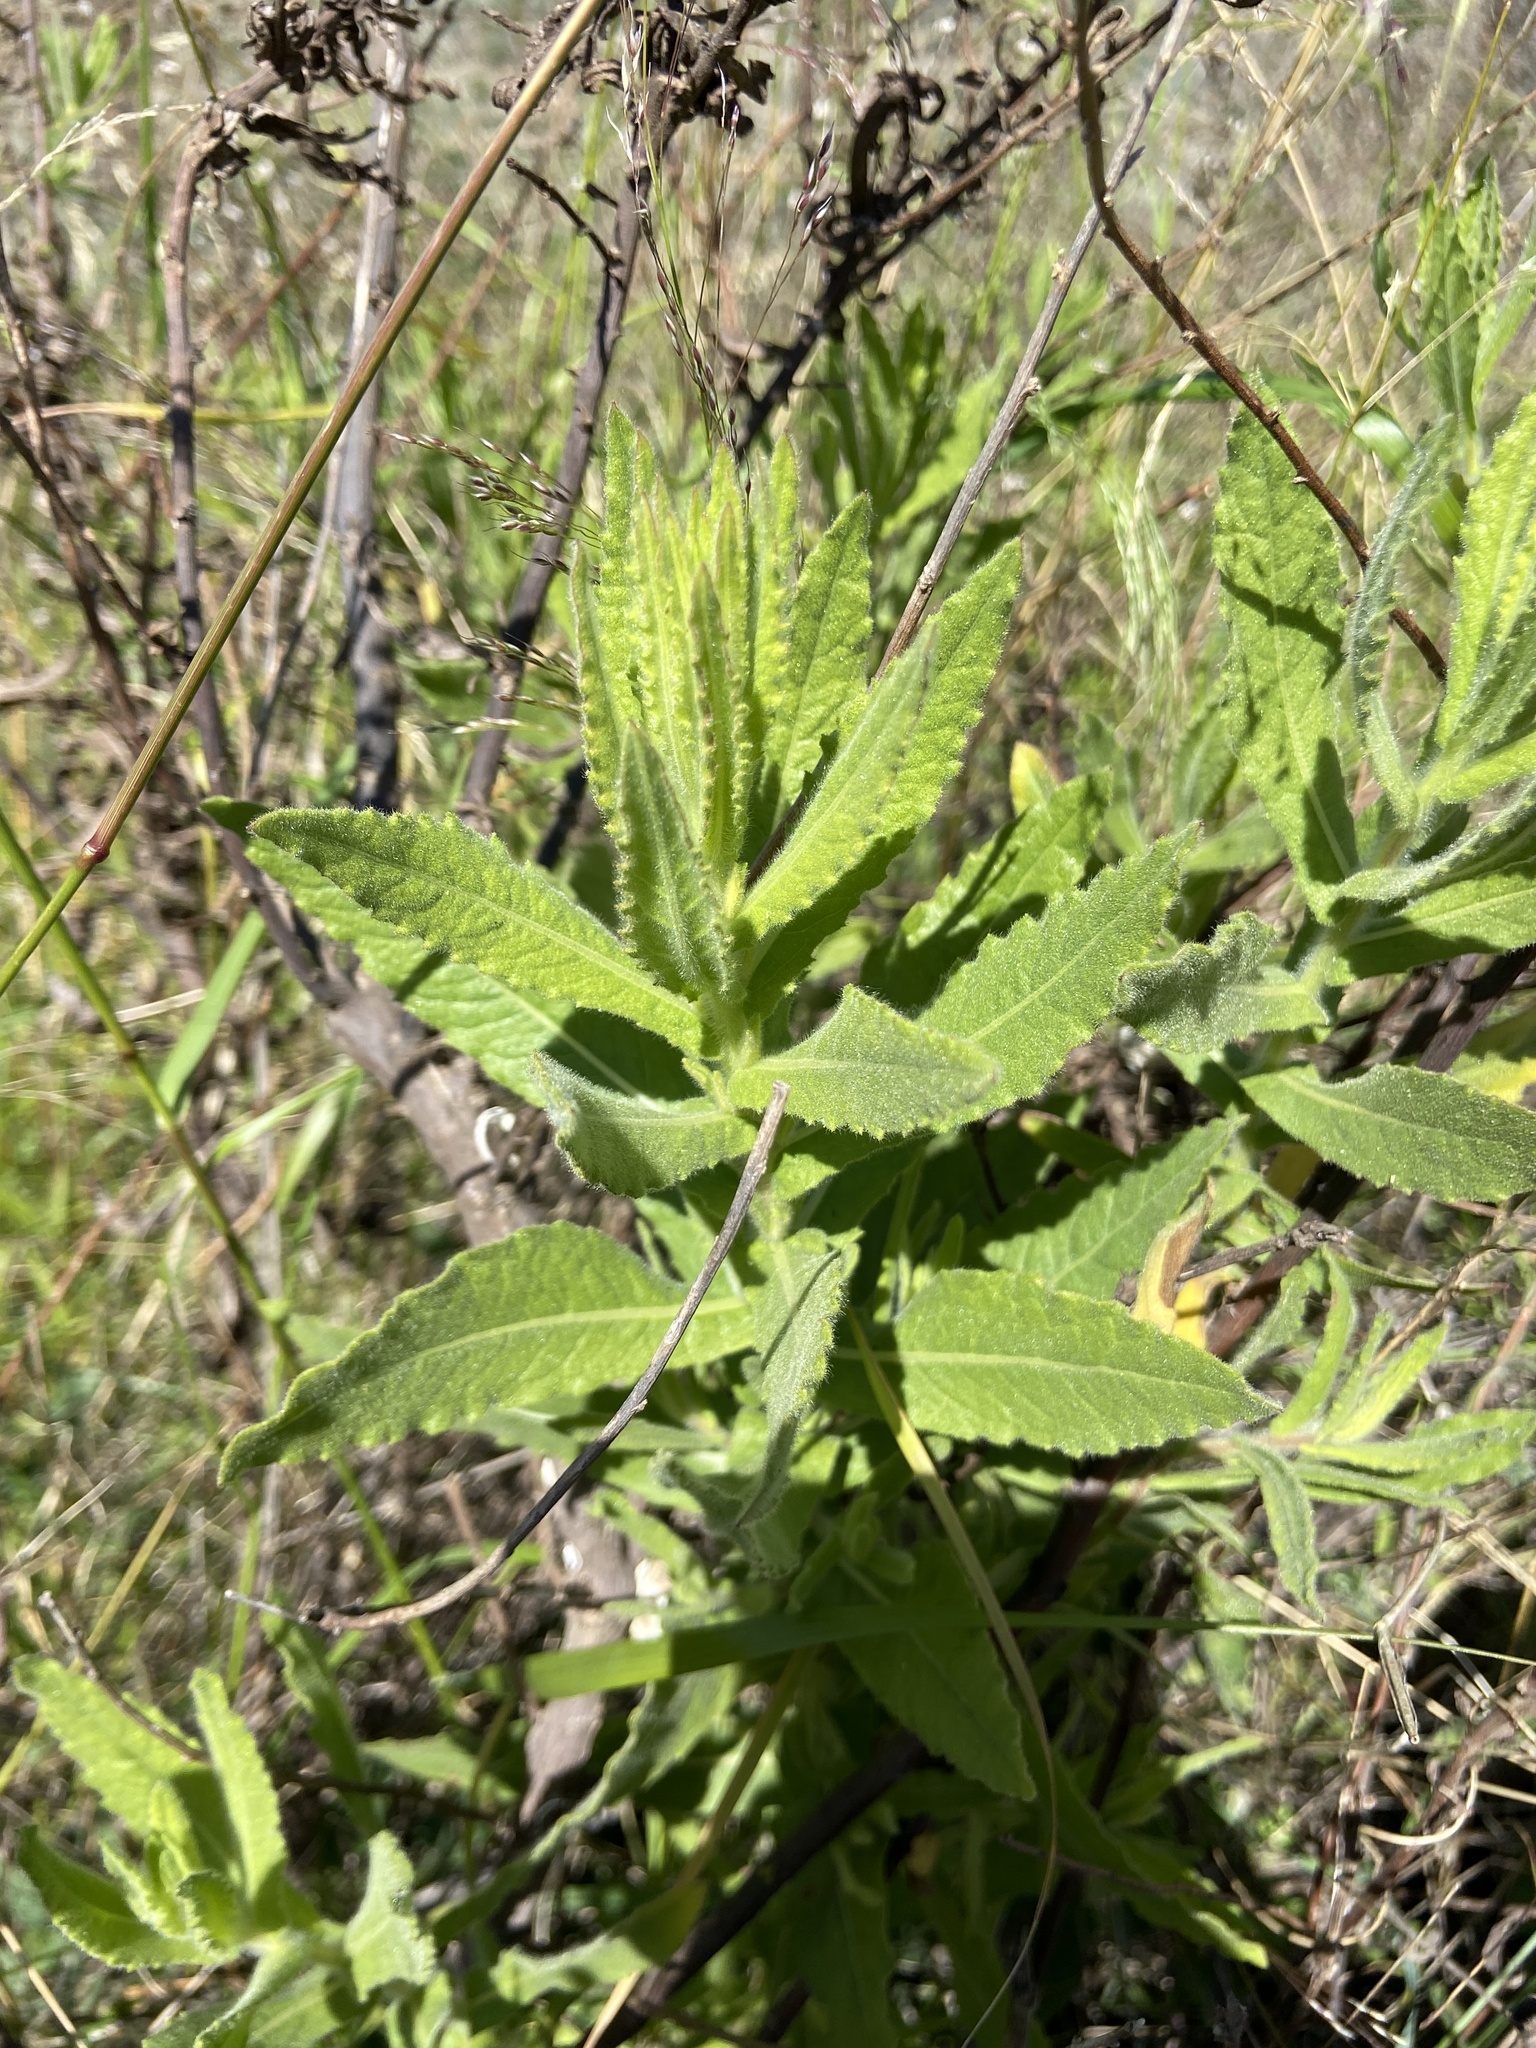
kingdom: Plantae
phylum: Tracheophyta
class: Magnoliopsida
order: Asterales
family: Asteraceae
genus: Dittrichia
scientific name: Dittrichia viscosa
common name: Woody fleabane
